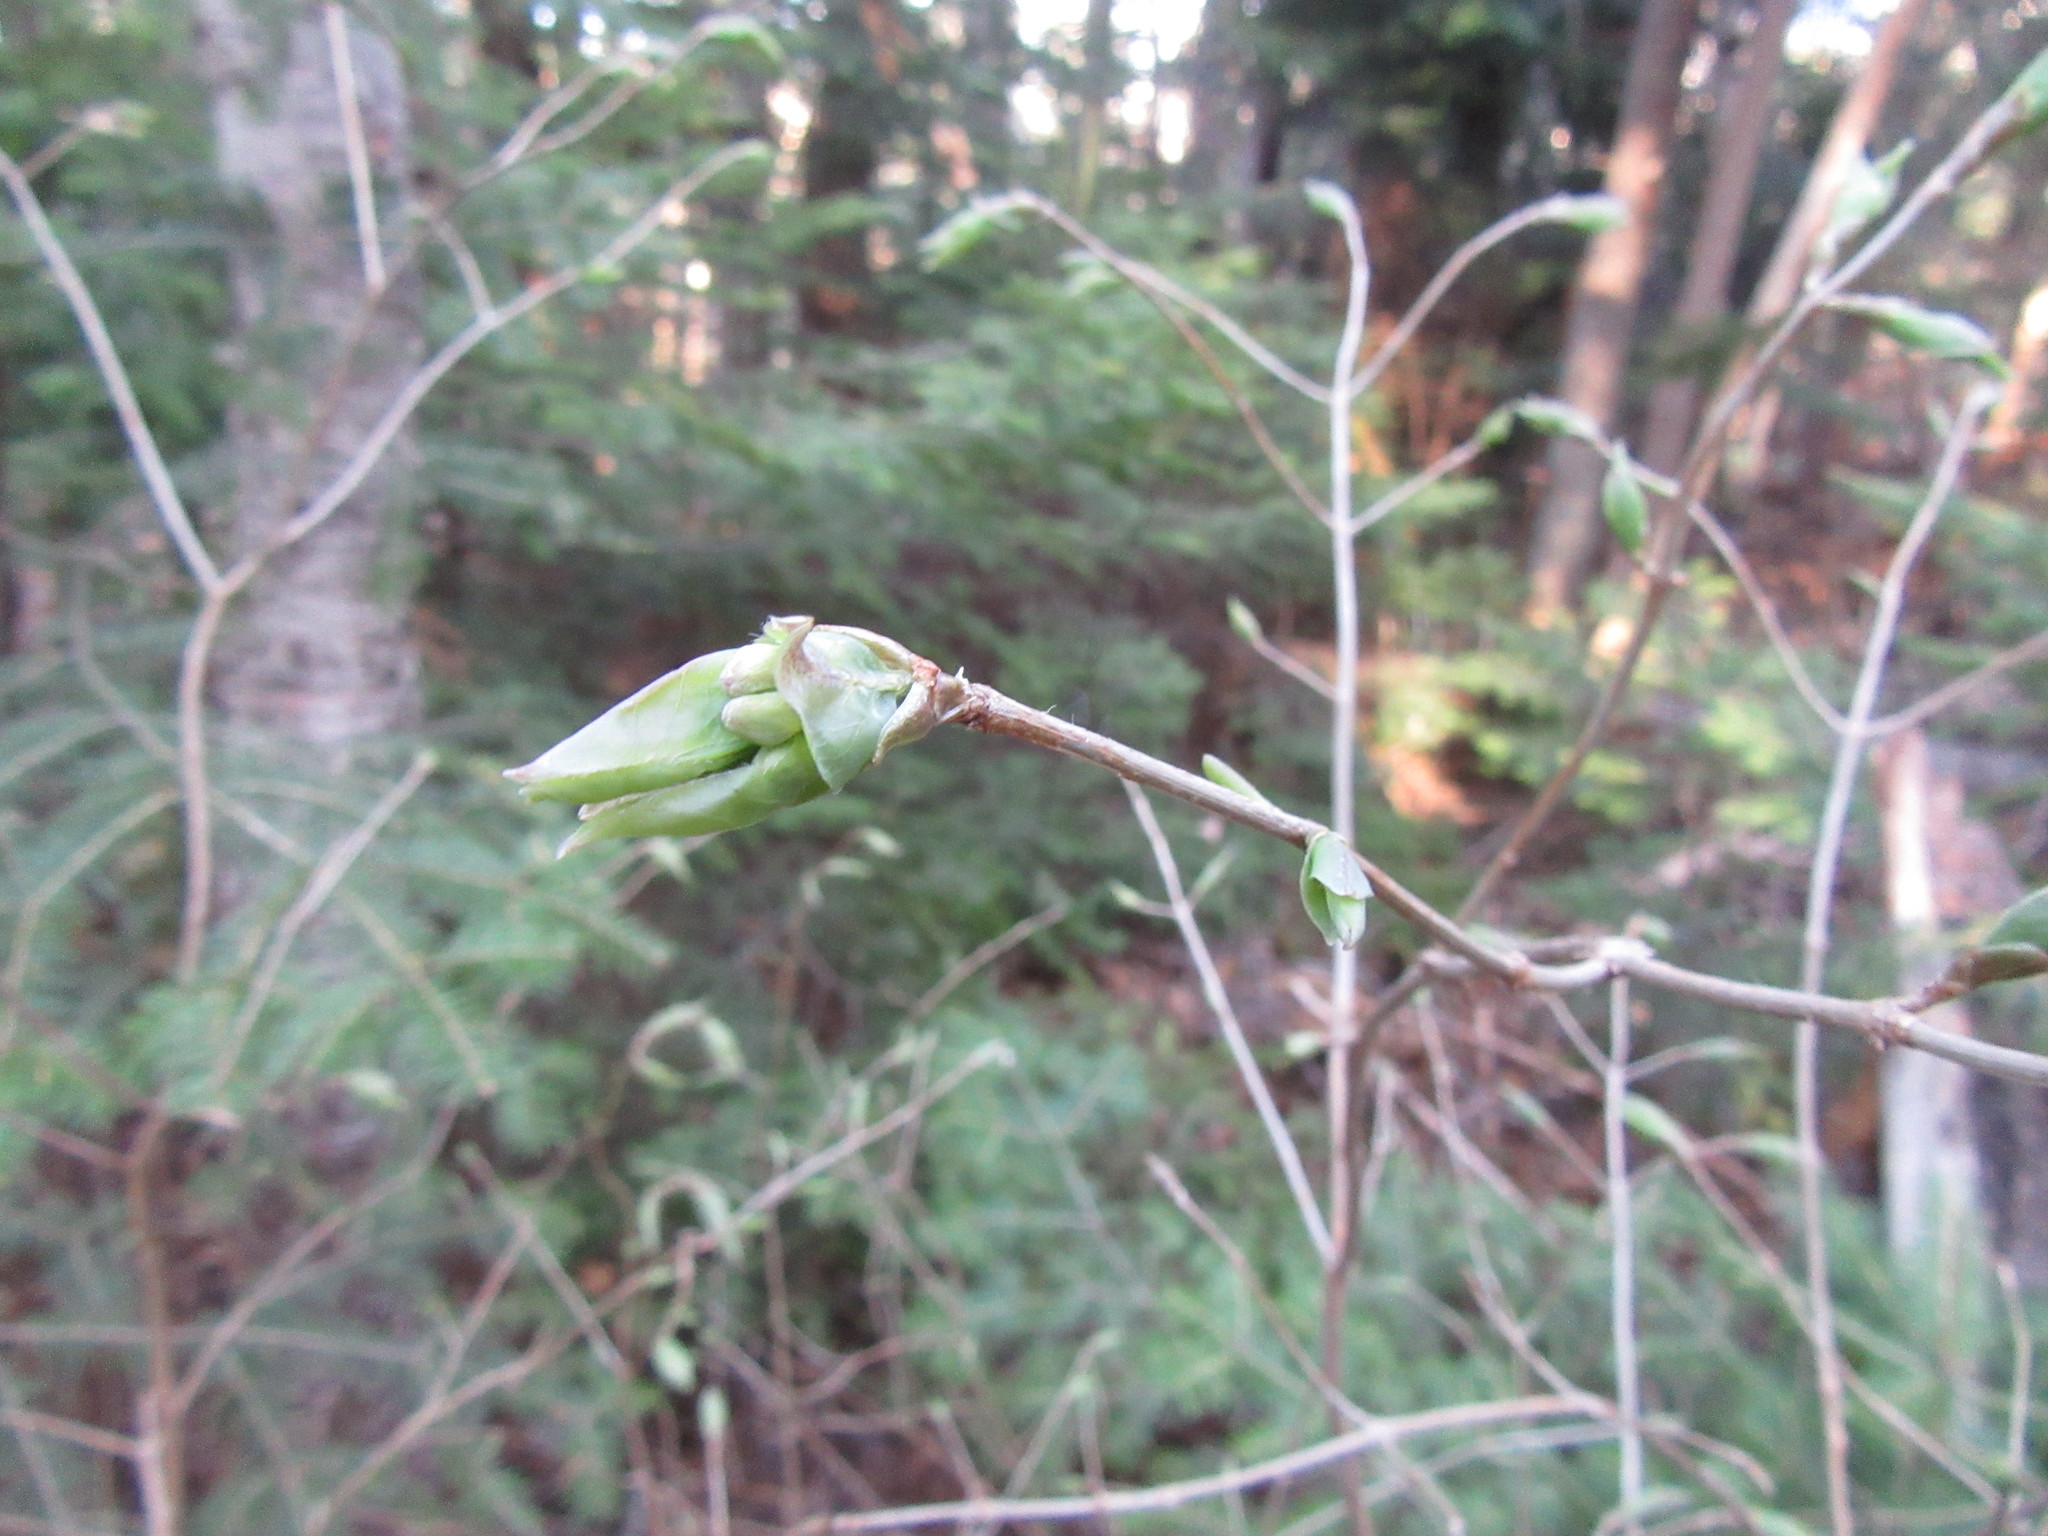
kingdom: Plantae
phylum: Tracheophyta
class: Magnoliopsida
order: Dipsacales
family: Caprifoliaceae
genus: Lonicera
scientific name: Lonicera canadensis
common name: American fly-honeysuckle
